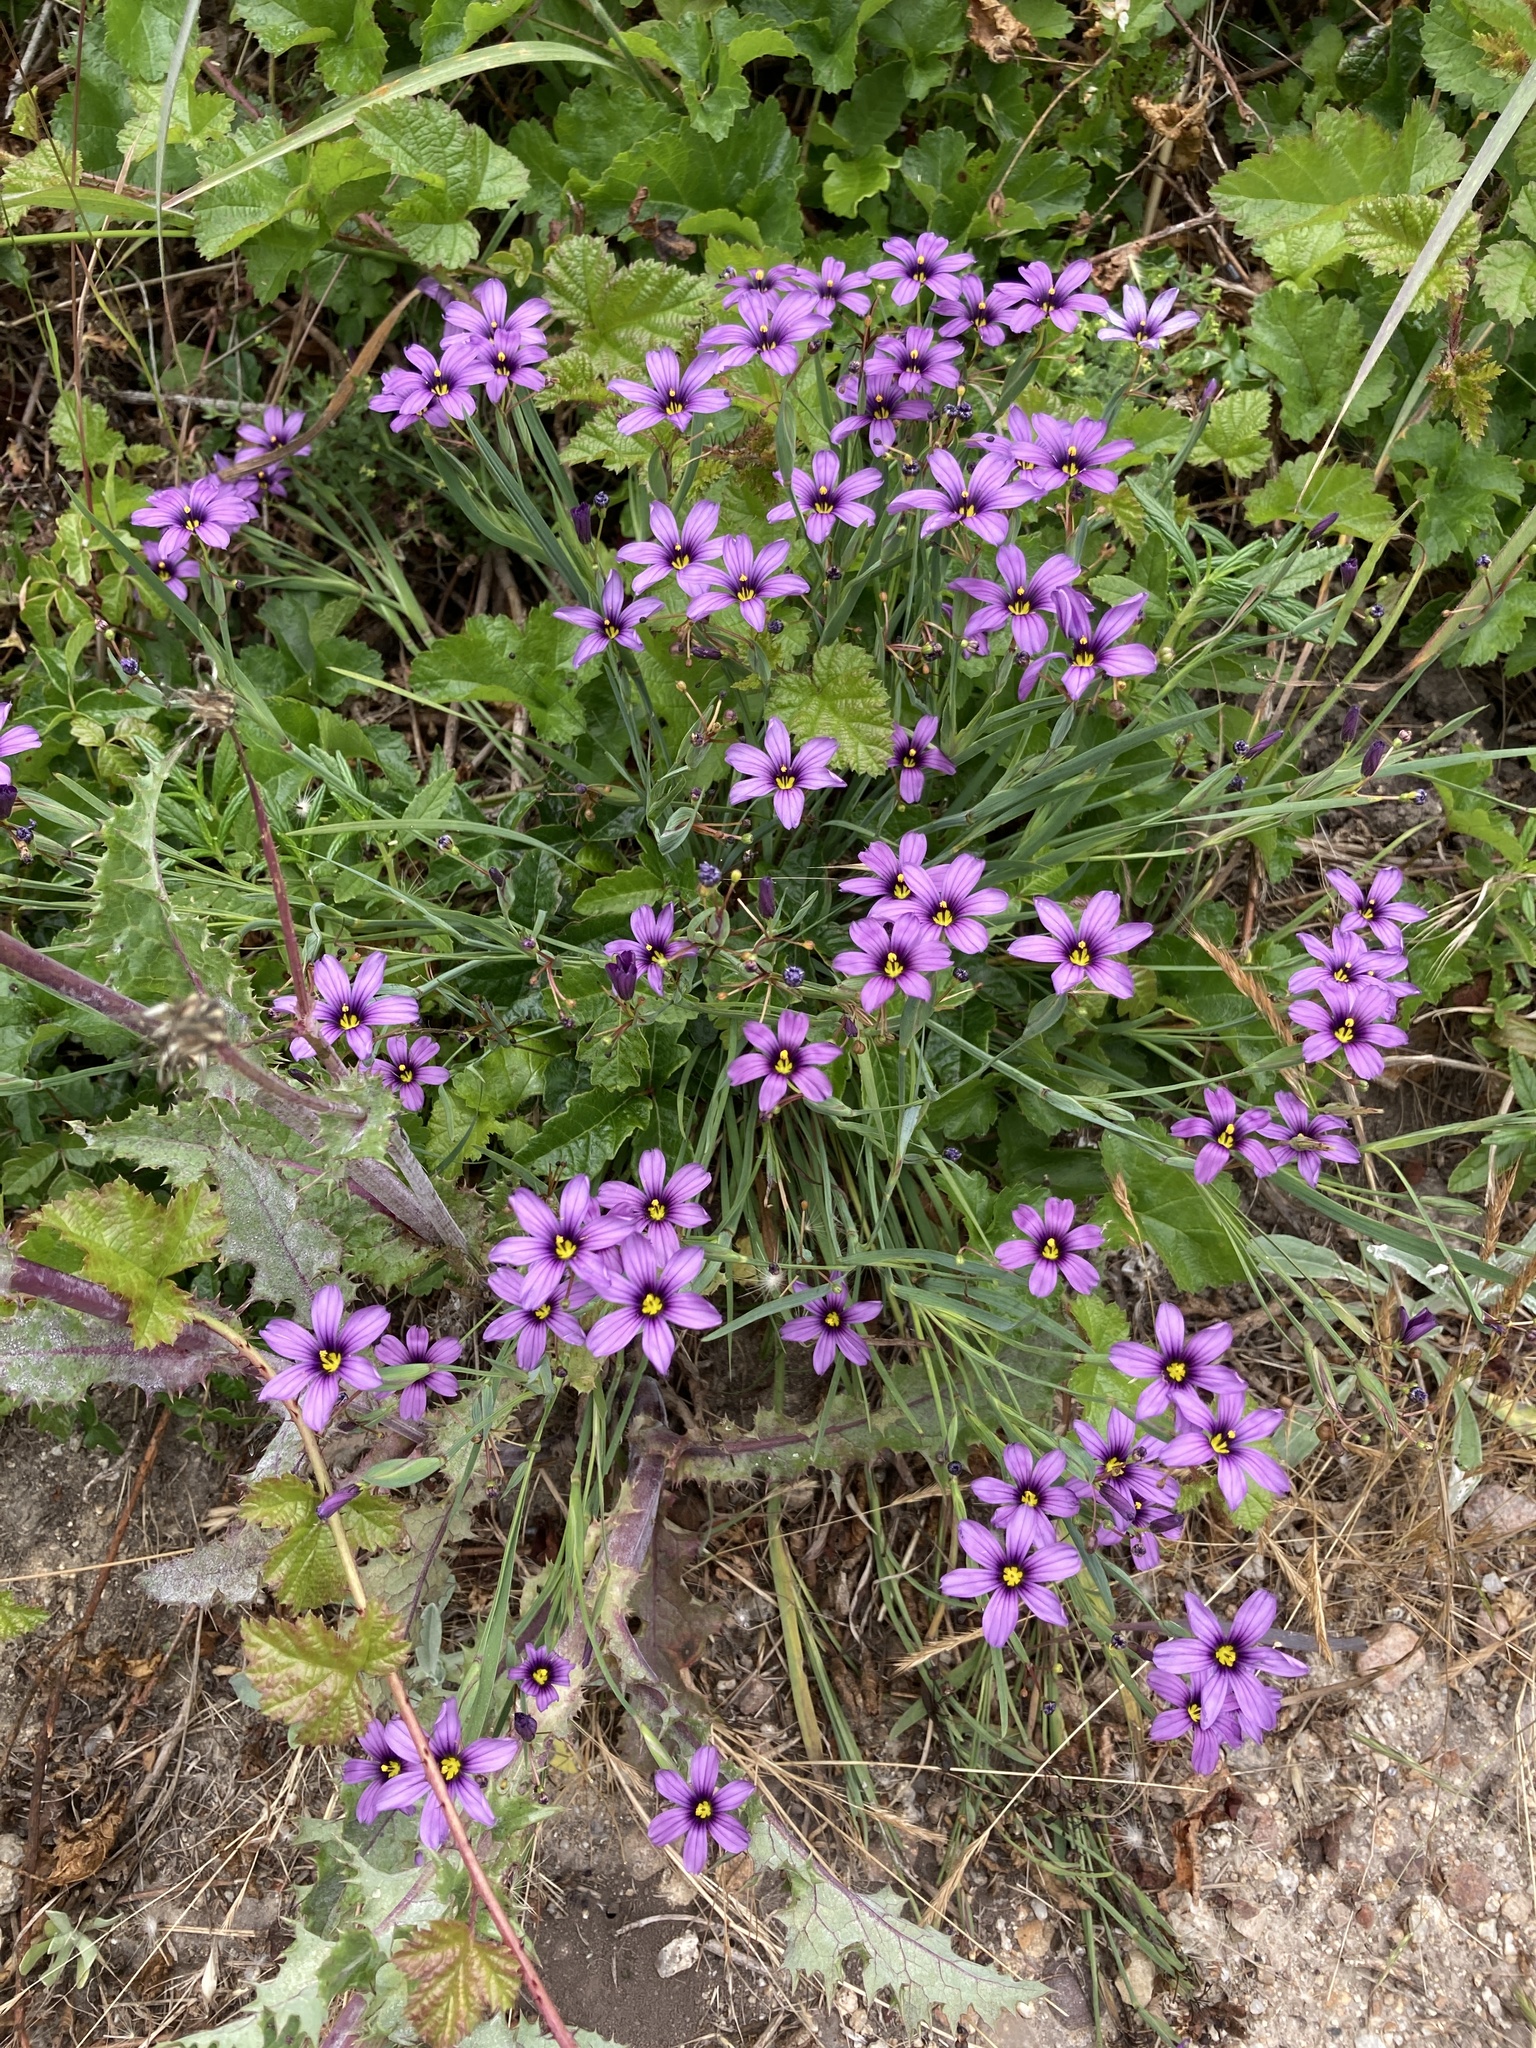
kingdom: Plantae
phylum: Tracheophyta
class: Liliopsida
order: Asparagales
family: Iridaceae
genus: Sisyrinchium
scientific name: Sisyrinchium bellum
